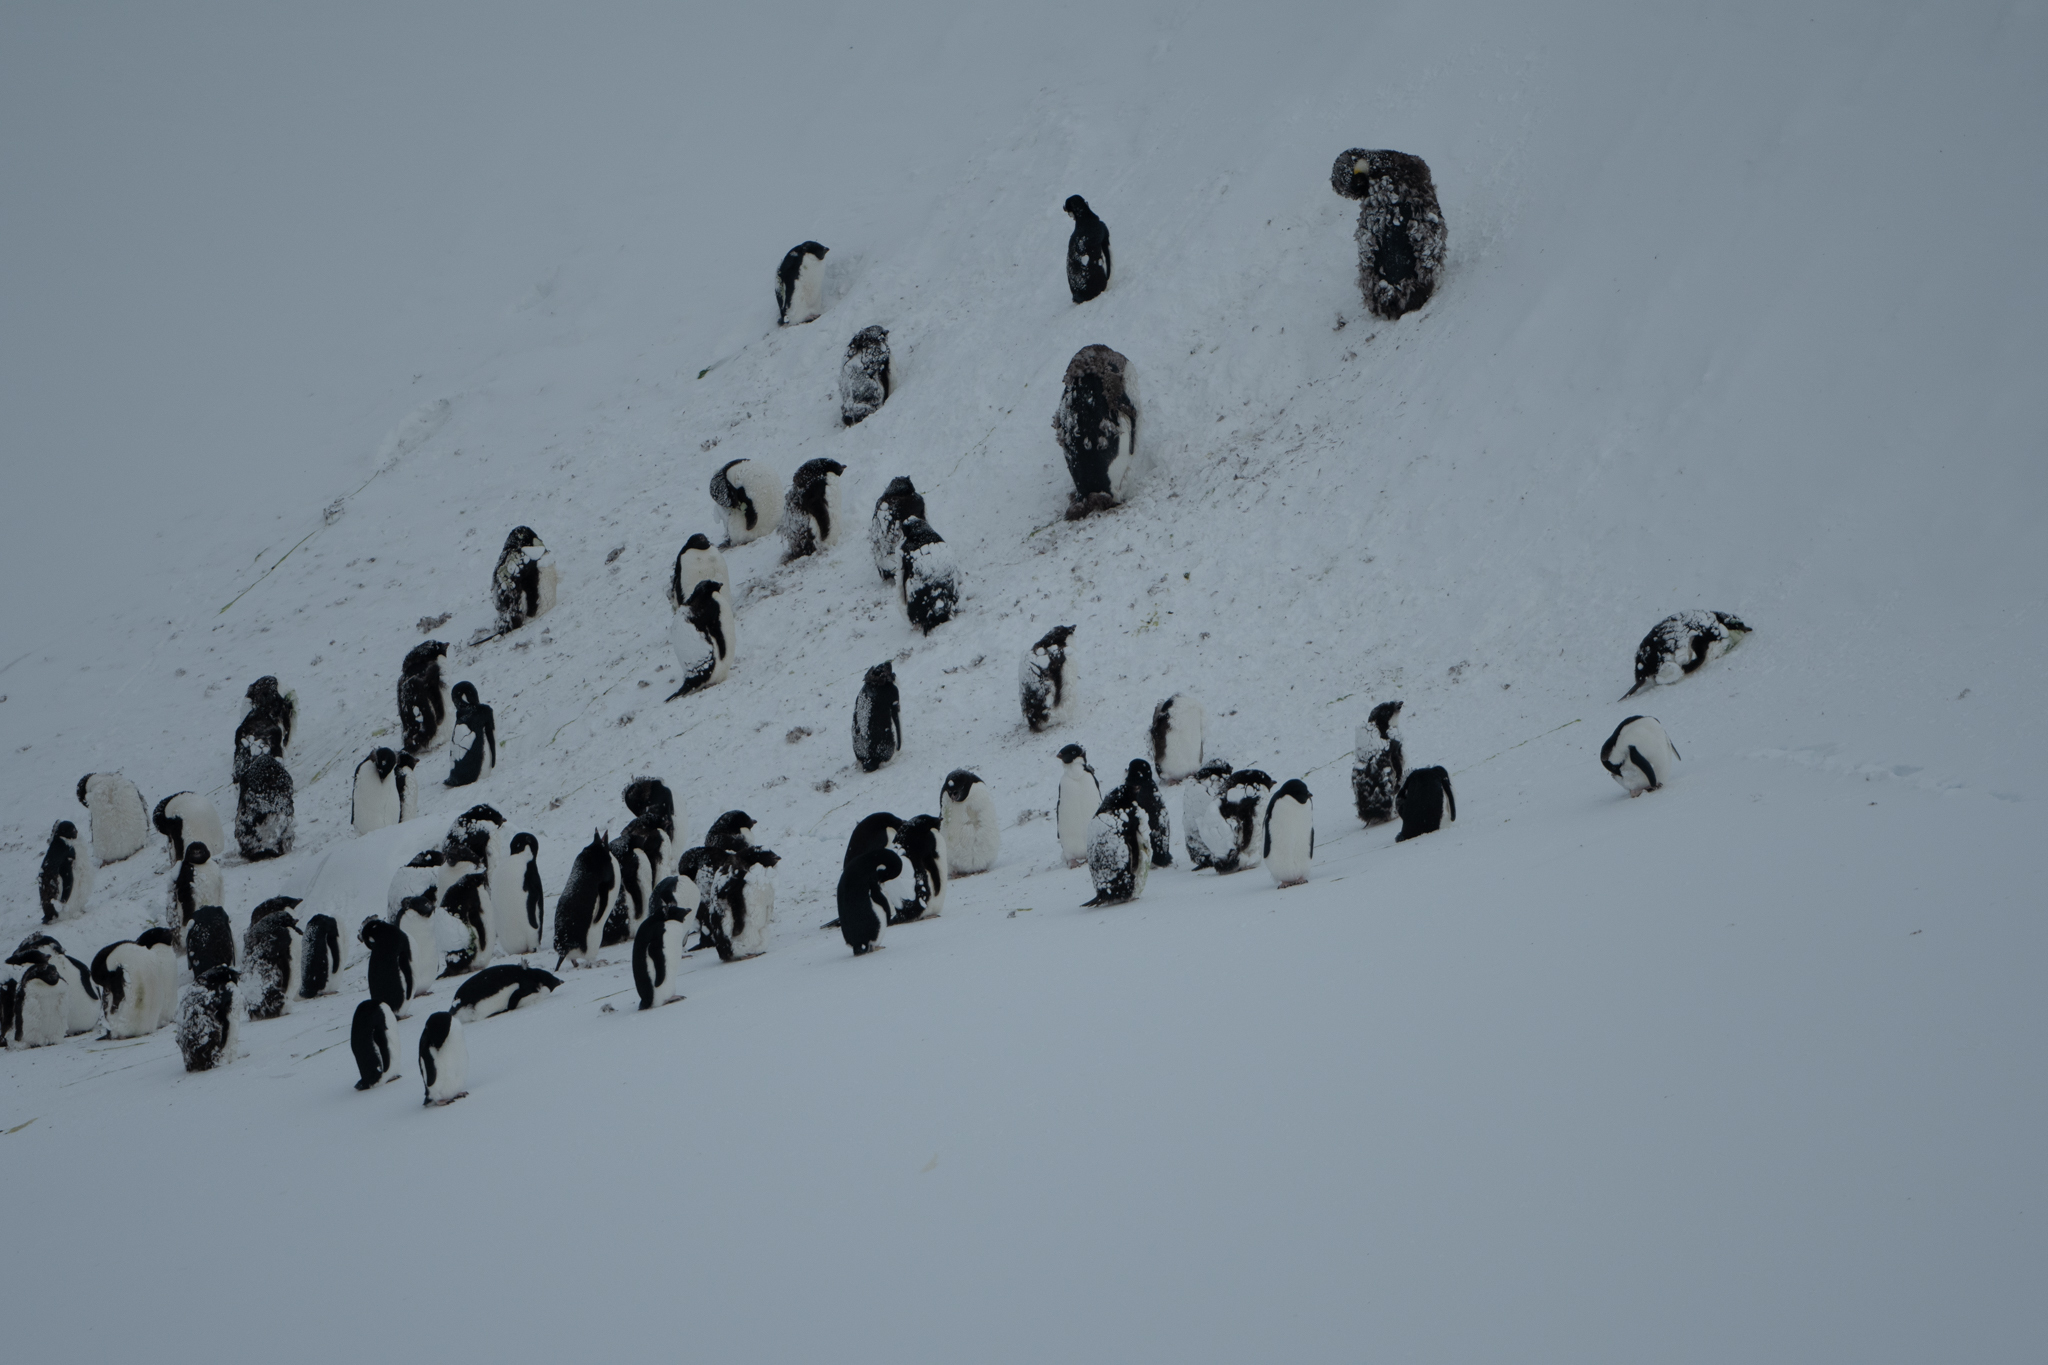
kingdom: Animalia
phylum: Chordata
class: Aves
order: Sphenisciformes
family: Spheniscidae
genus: Pygoscelis
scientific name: Pygoscelis adeliae
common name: Adelie penguin
